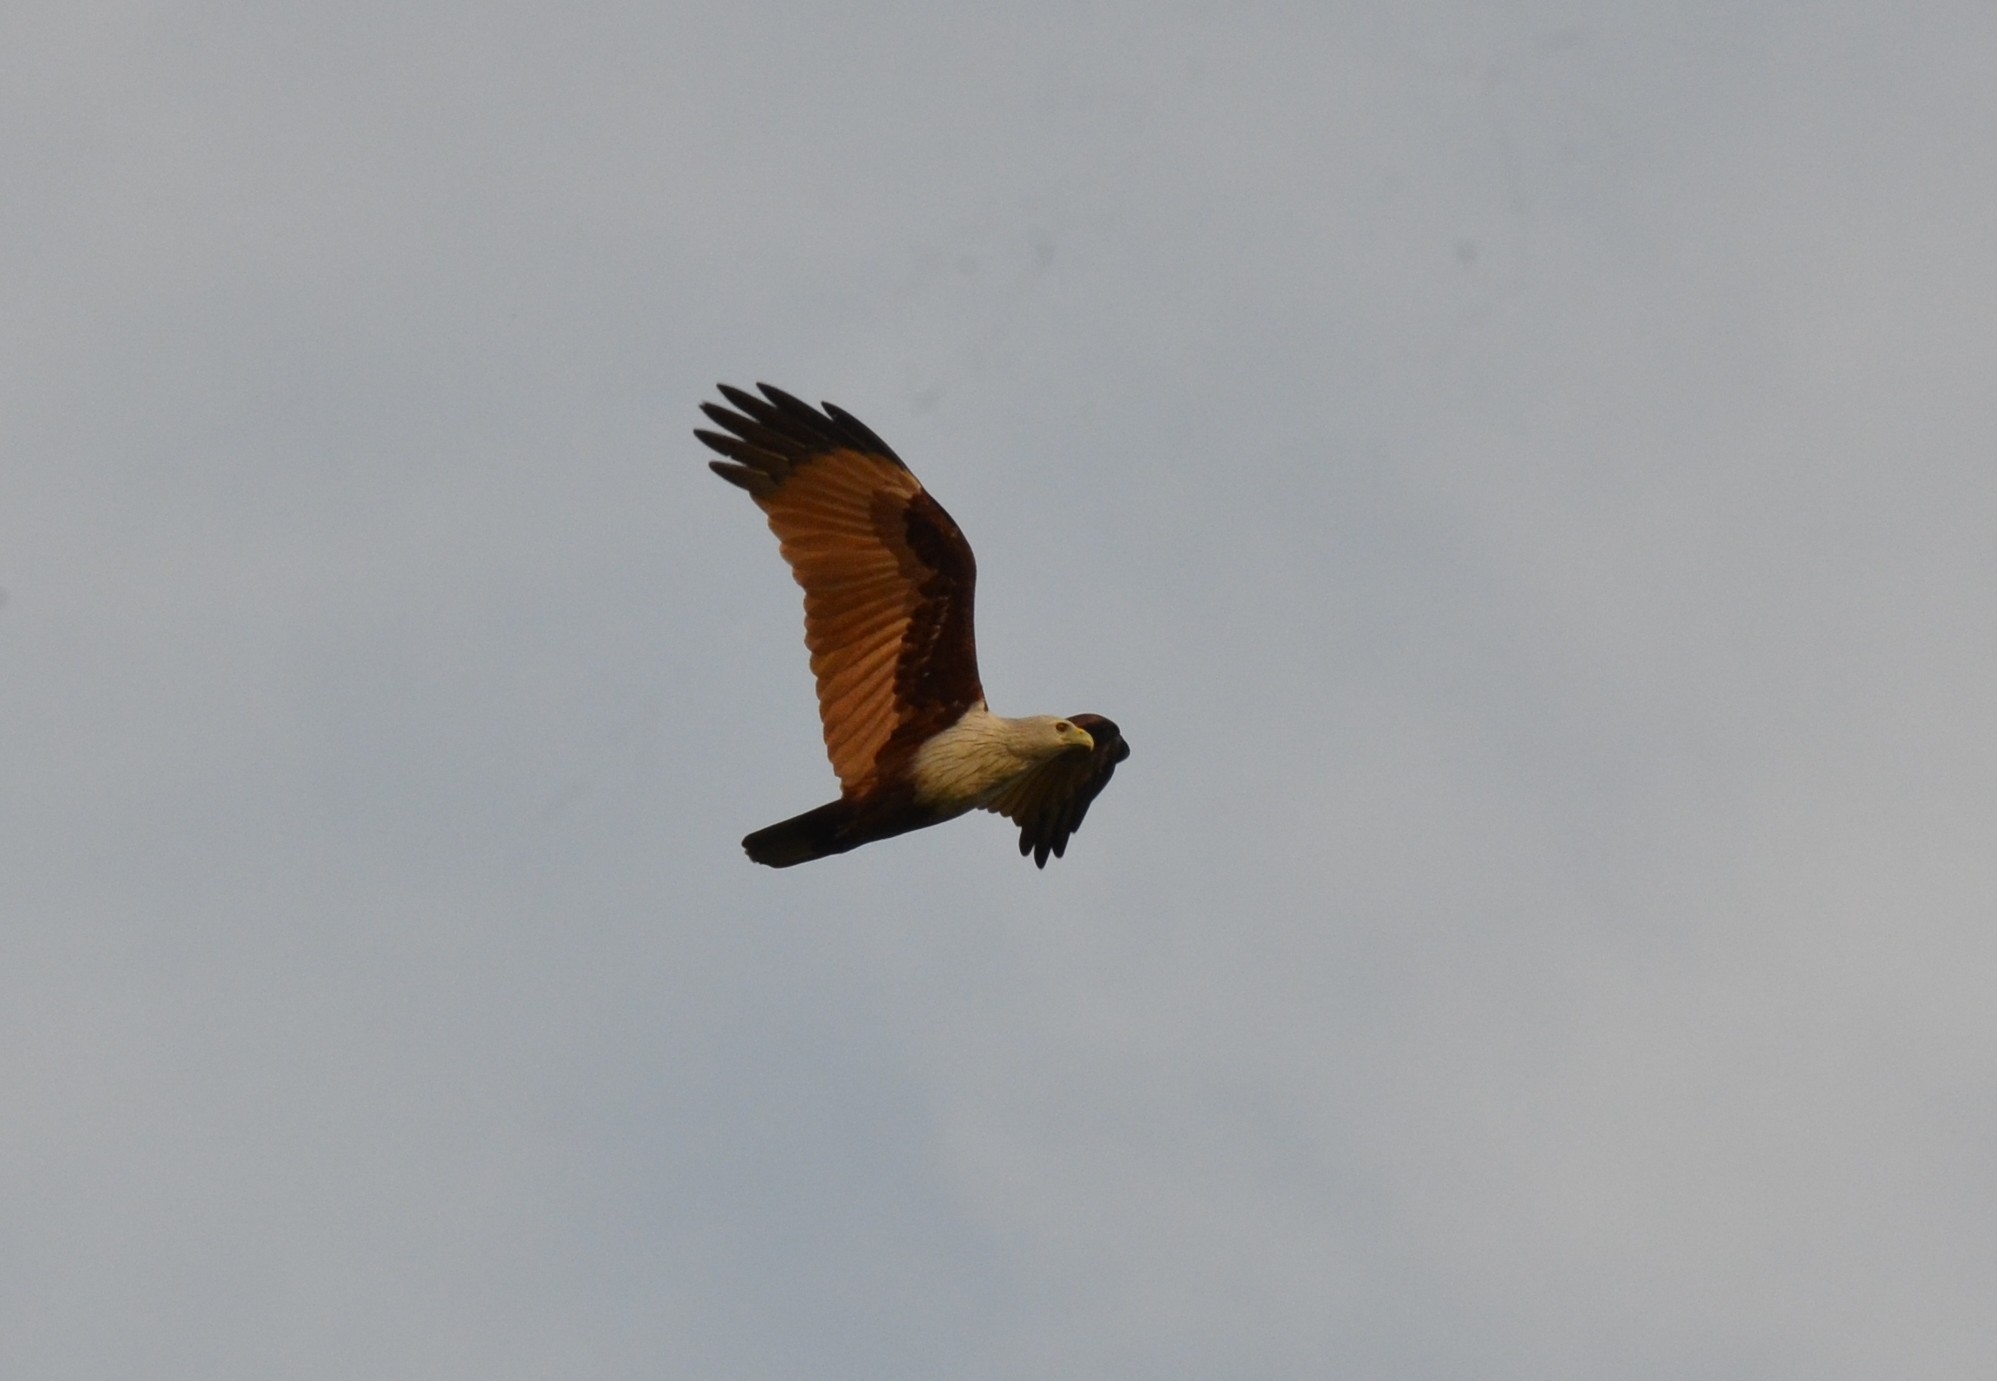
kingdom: Animalia
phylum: Chordata
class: Aves
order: Accipitriformes
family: Accipitridae
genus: Haliastur
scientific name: Haliastur indus
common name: Brahminy kite
